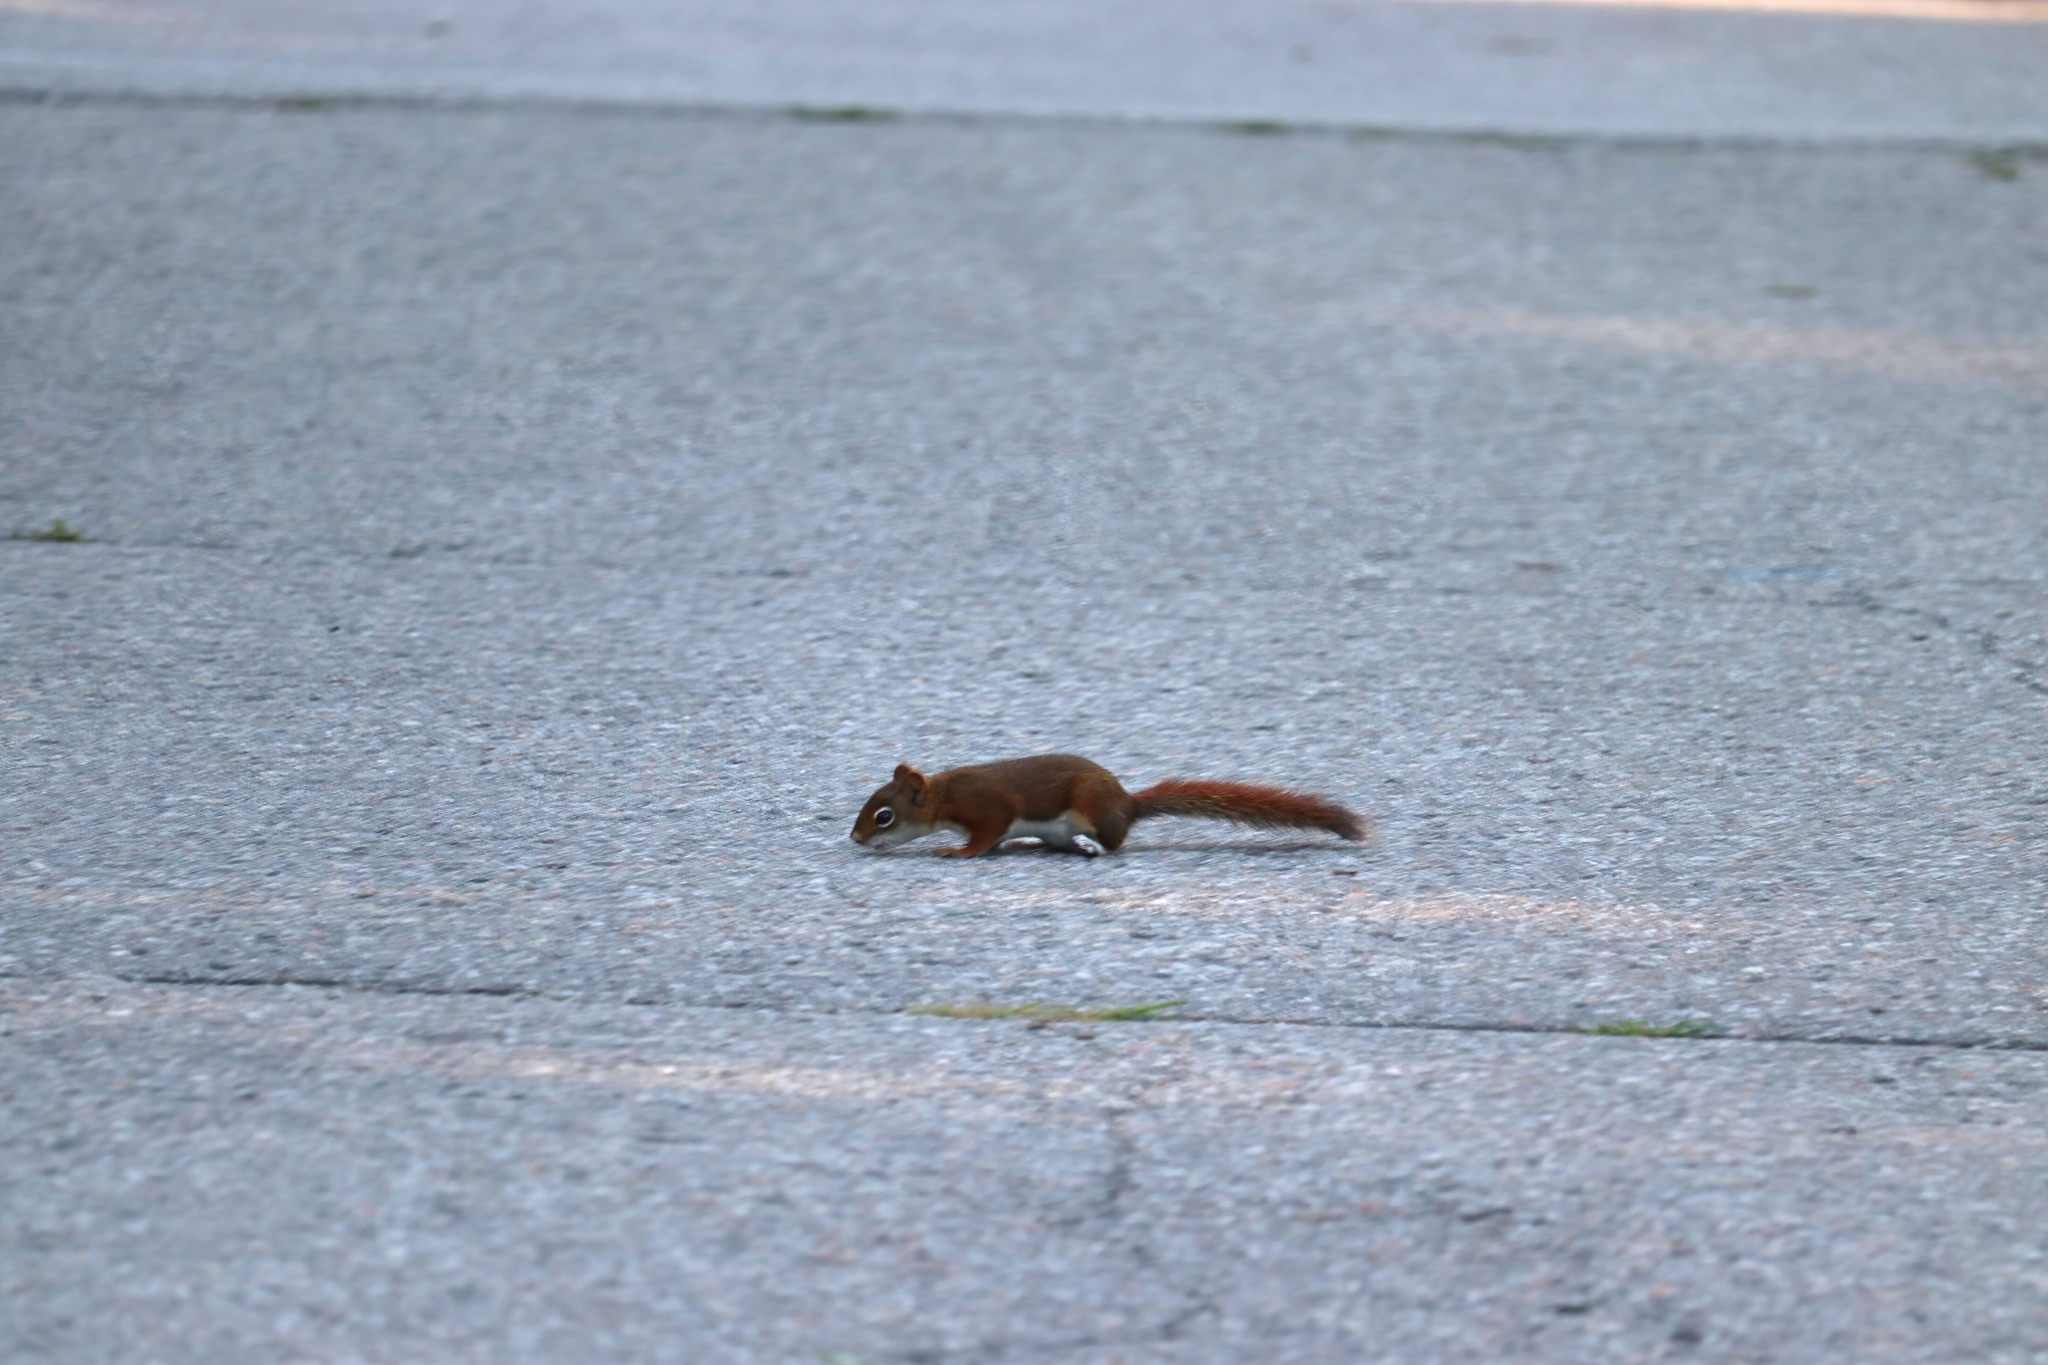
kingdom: Animalia
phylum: Chordata
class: Mammalia
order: Rodentia
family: Sciuridae
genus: Tamiasciurus
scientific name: Tamiasciurus hudsonicus
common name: Red squirrel
